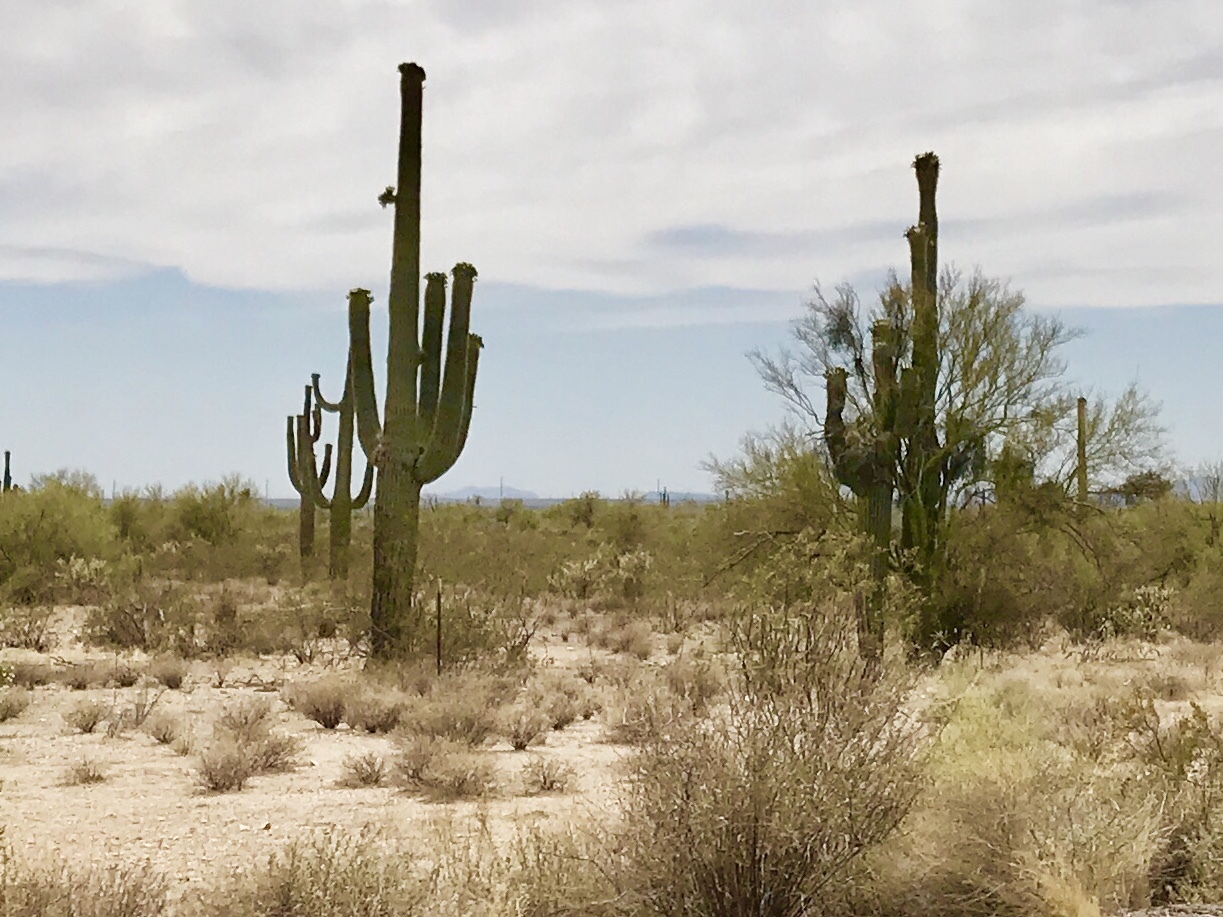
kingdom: Plantae
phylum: Tracheophyta
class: Magnoliopsida
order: Caryophyllales
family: Cactaceae
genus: Carnegiea
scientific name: Carnegiea gigantea
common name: Saguaro
